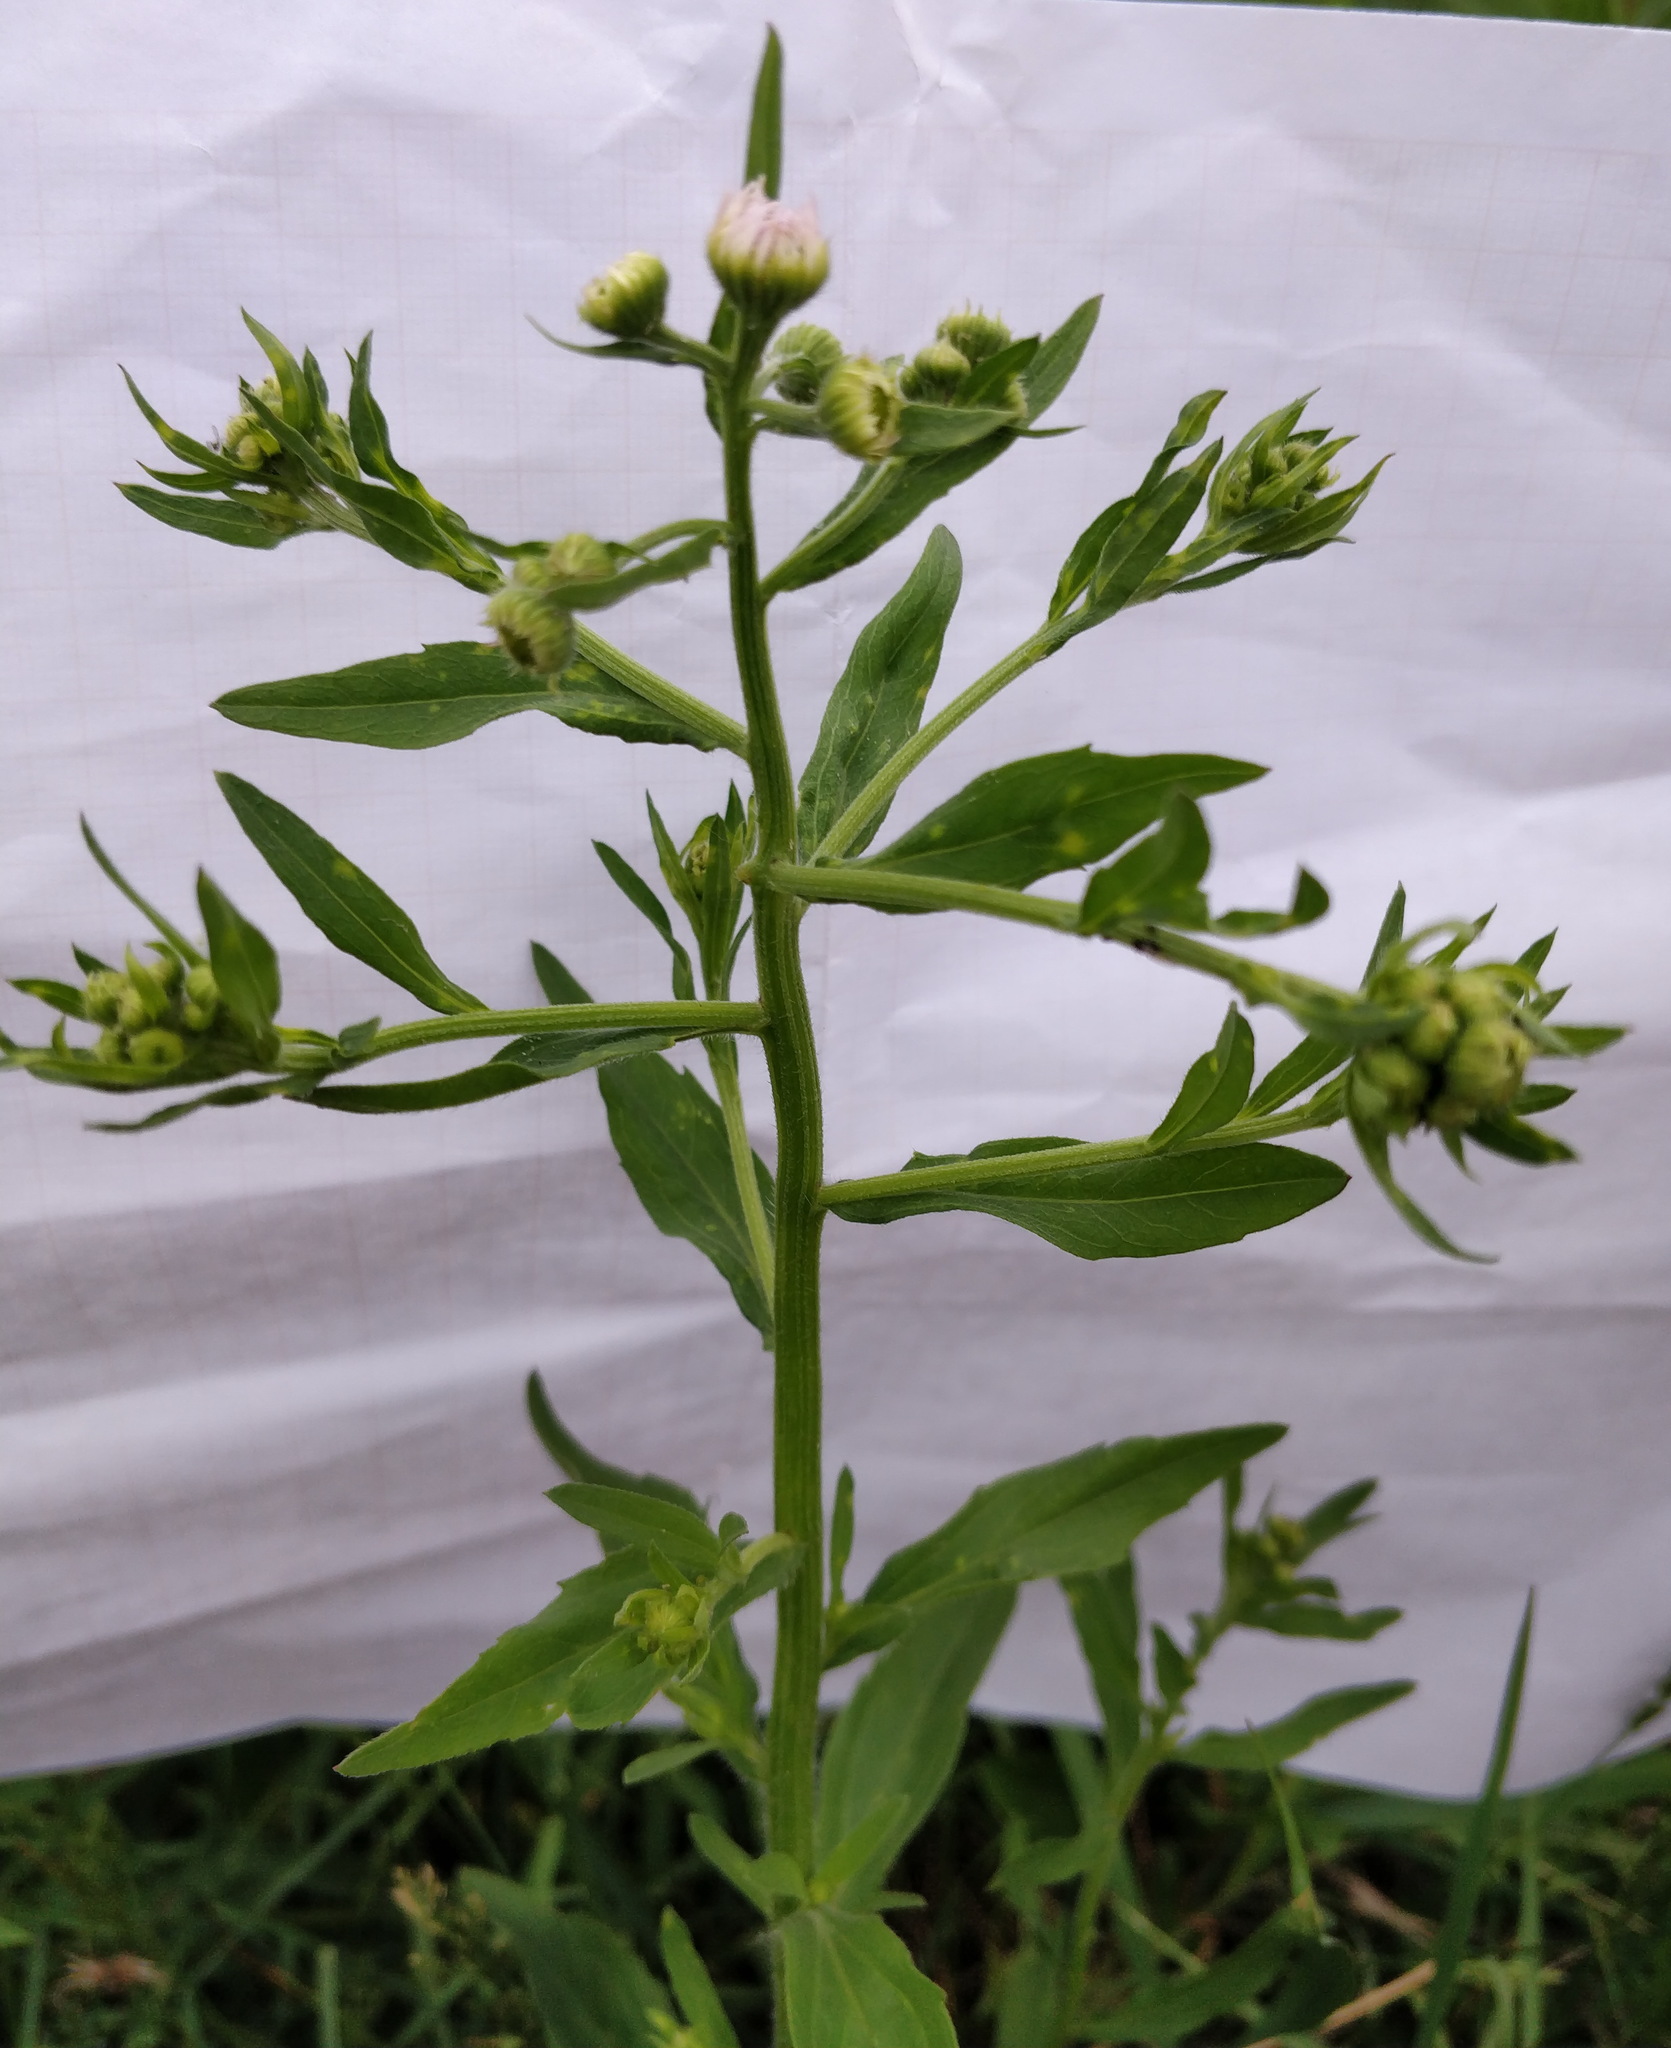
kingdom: Plantae
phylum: Tracheophyta
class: Magnoliopsida
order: Asterales
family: Asteraceae
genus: Erigeron
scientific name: Erigeron annuus
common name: Tall fleabane
